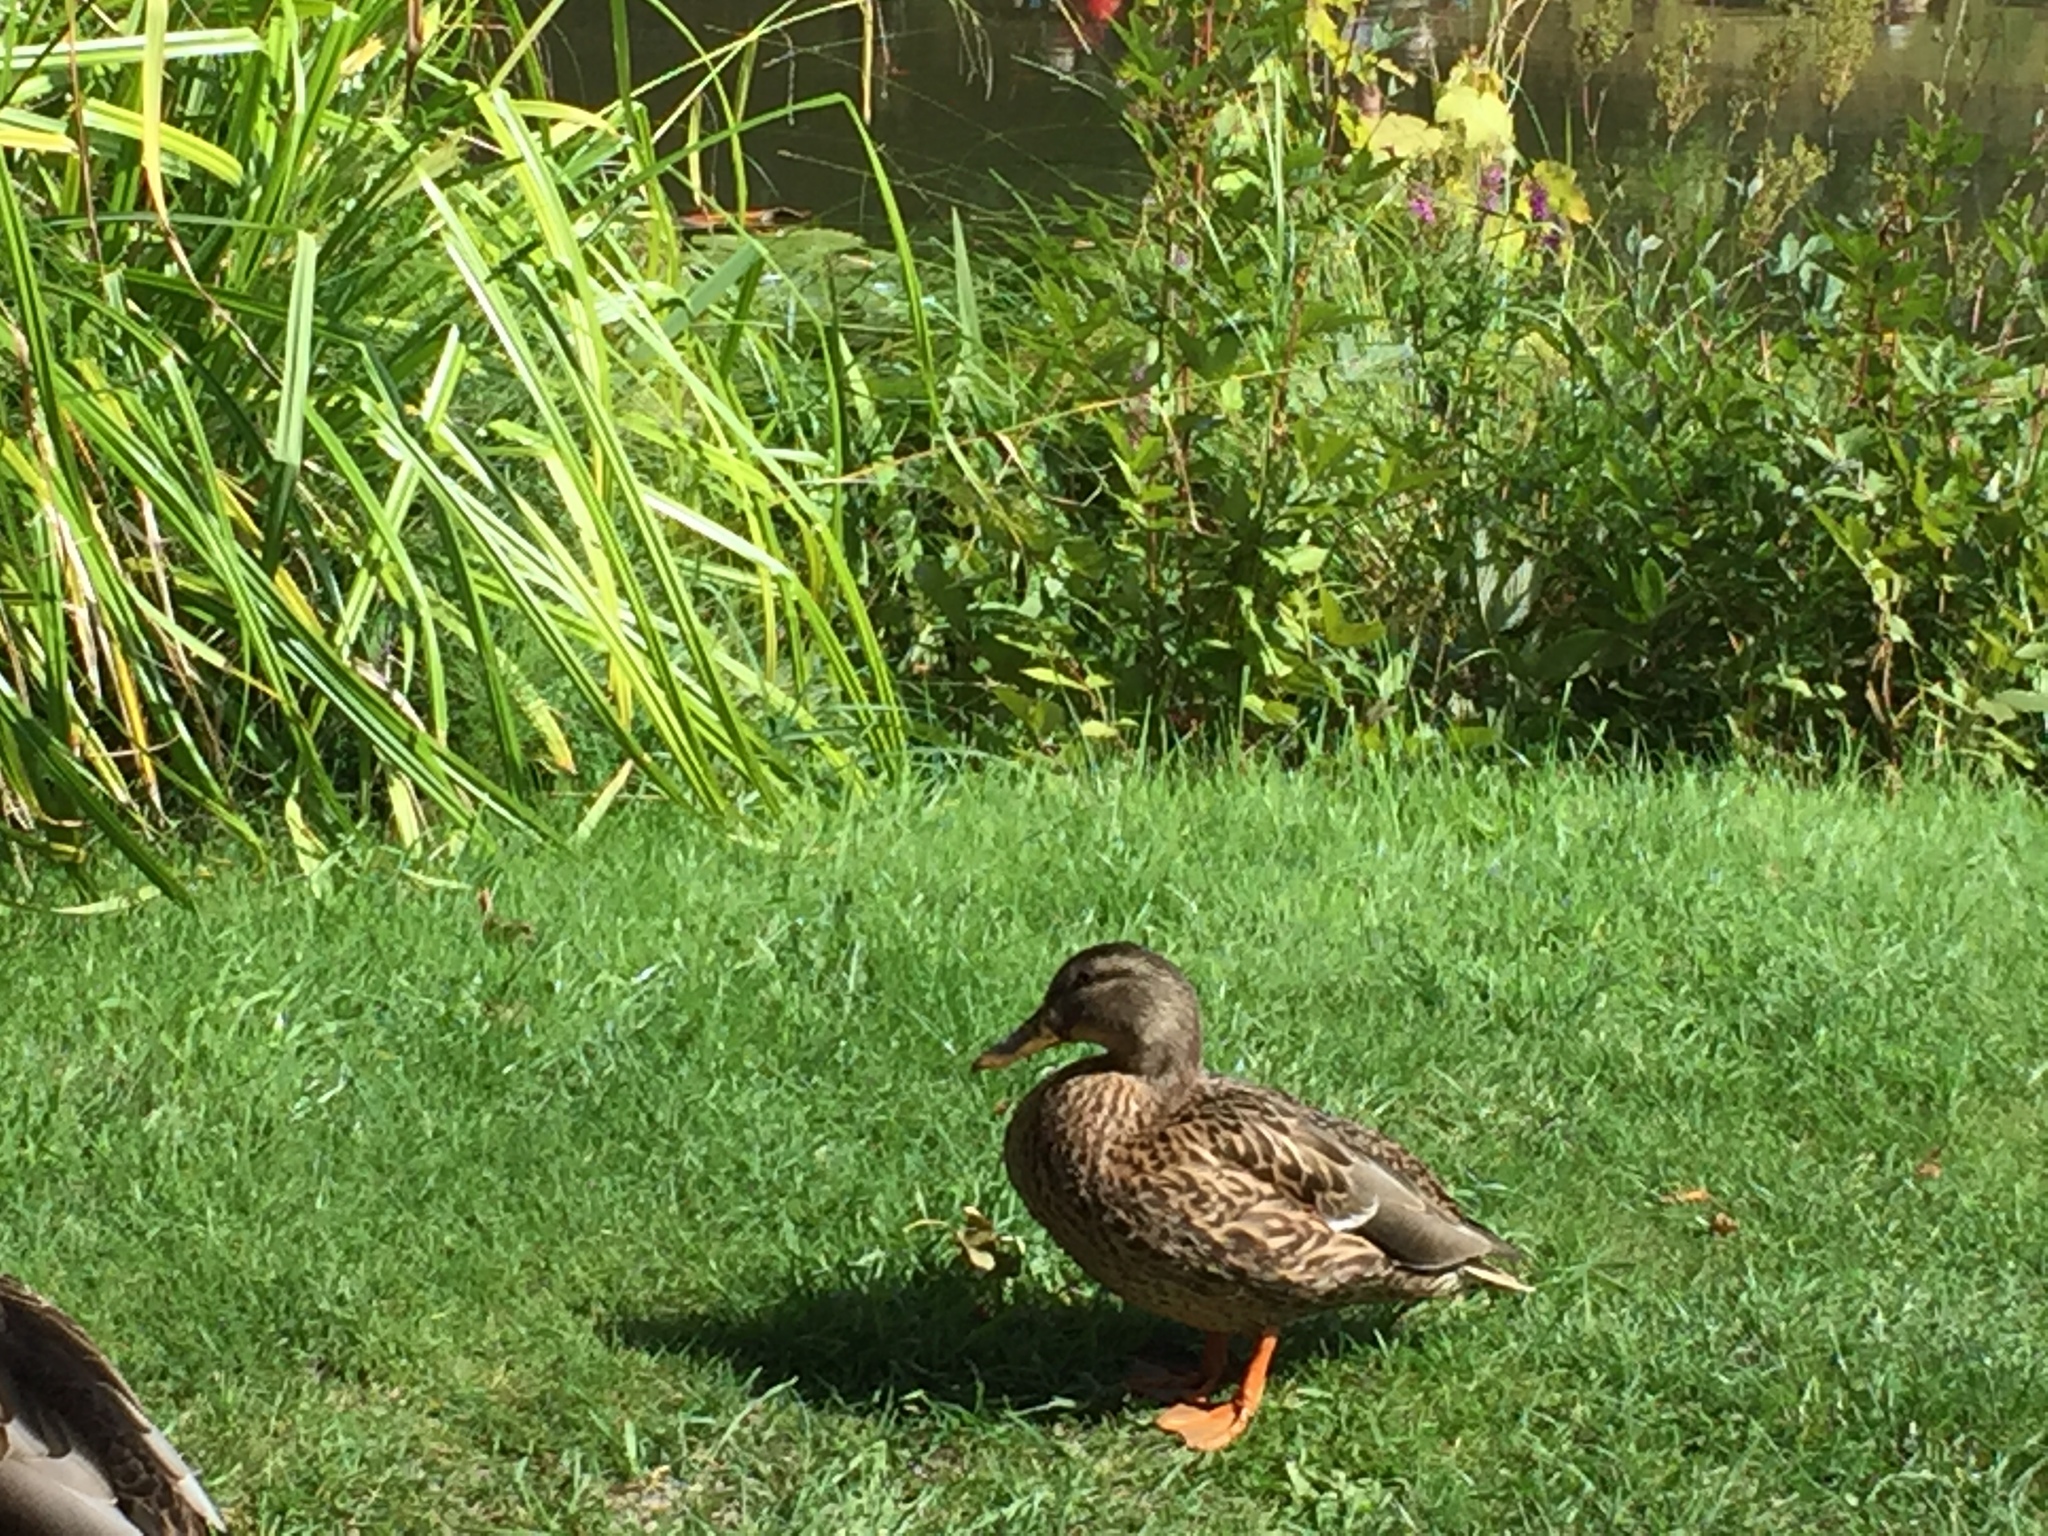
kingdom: Animalia
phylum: Chordata
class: Aves
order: Anseriformes
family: Anatidae
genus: Anas
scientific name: Anas platyrhynchos
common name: Mallard
